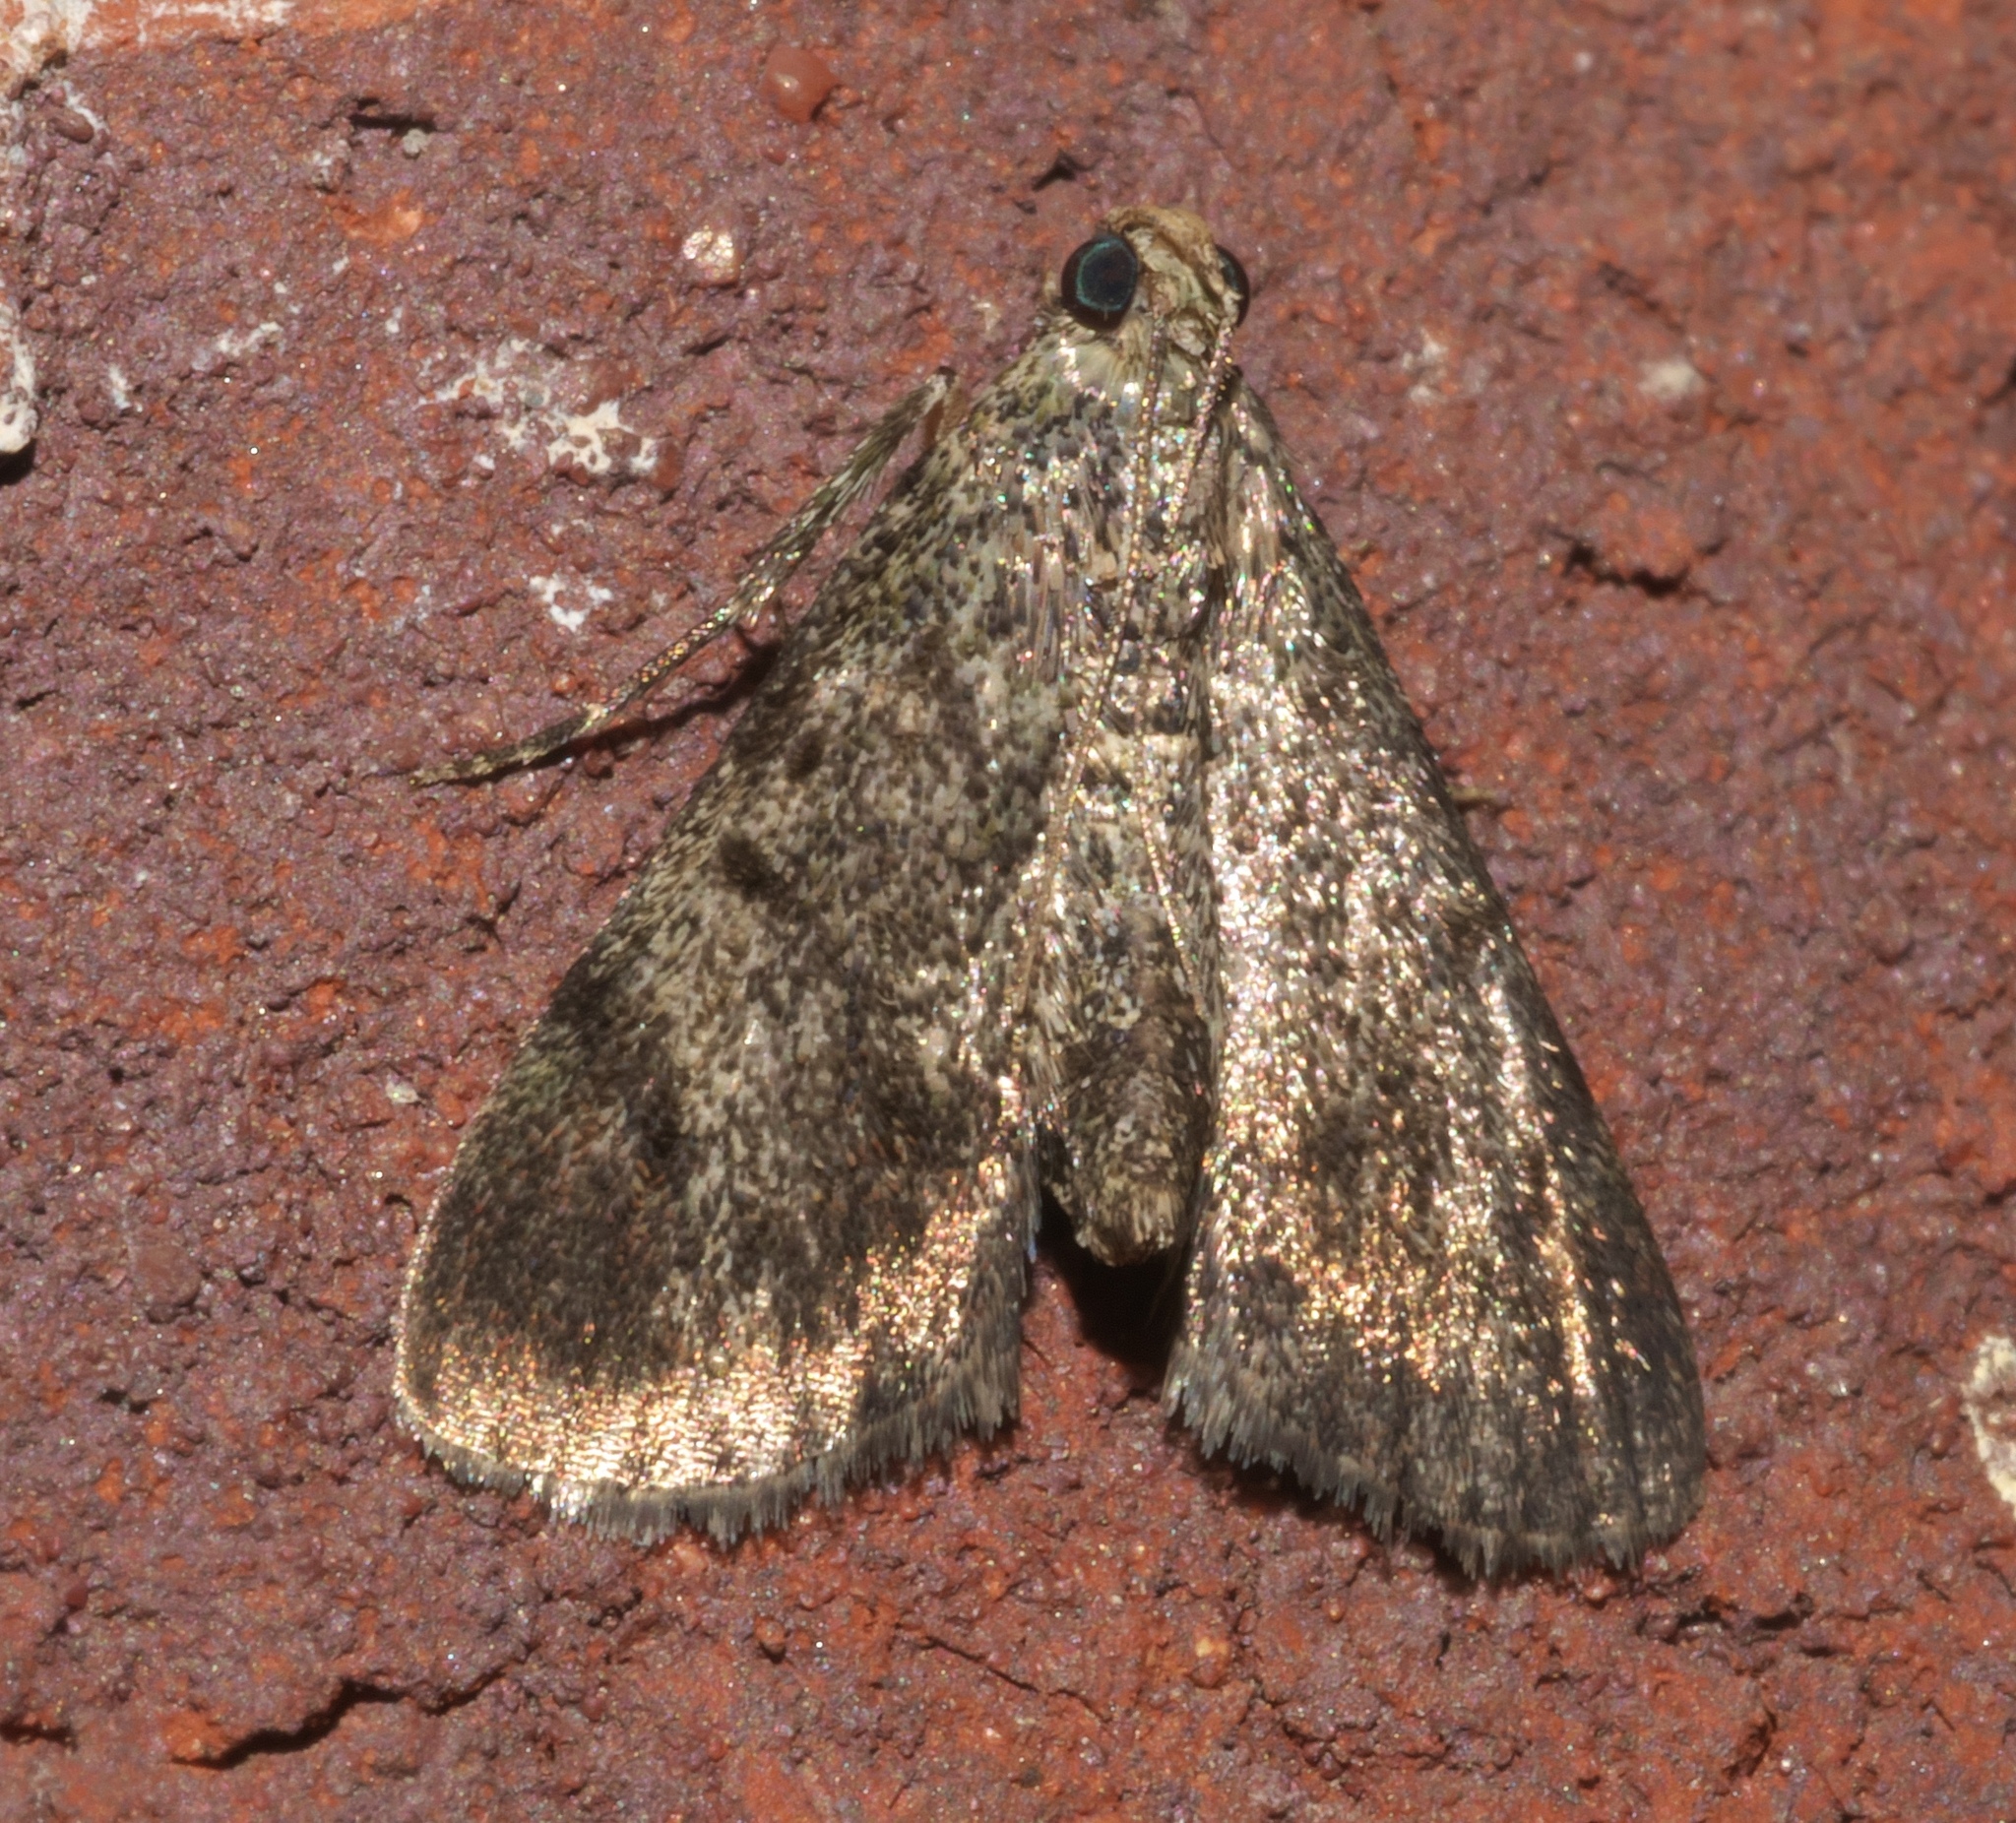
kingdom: Animalia
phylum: Arthropoda
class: Insecta
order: Lepidoptera
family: Pyralidae
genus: Epipaschia
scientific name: Epipaschia superatalis
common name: Dimorphic macalla moth
